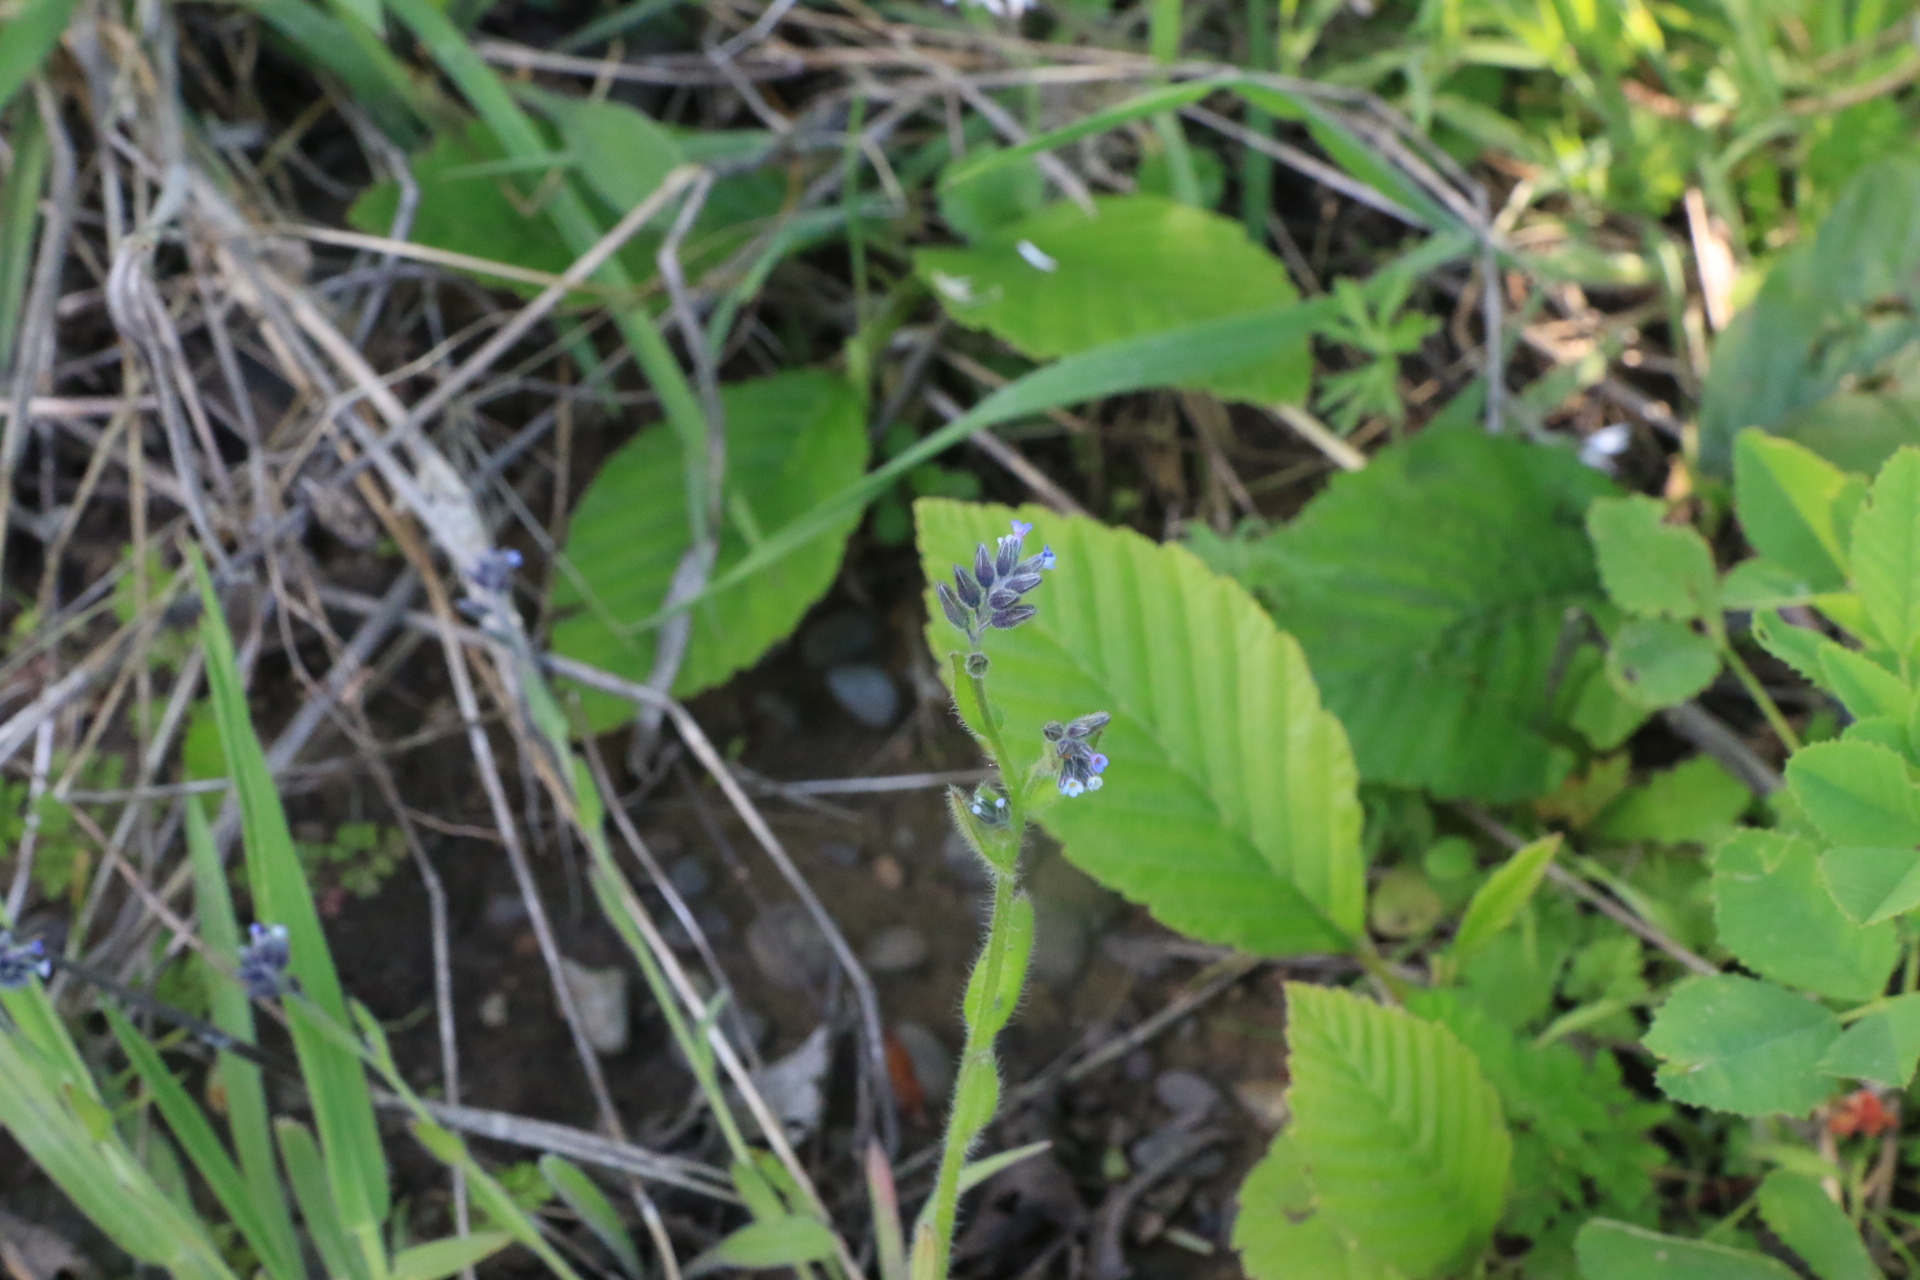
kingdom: Plantae
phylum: Tracheophyta
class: Magnoliopsida
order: Boraginales
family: Boraginaceae
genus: Myosotis
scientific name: Myosotis discolor
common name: Changing forget-me-not
